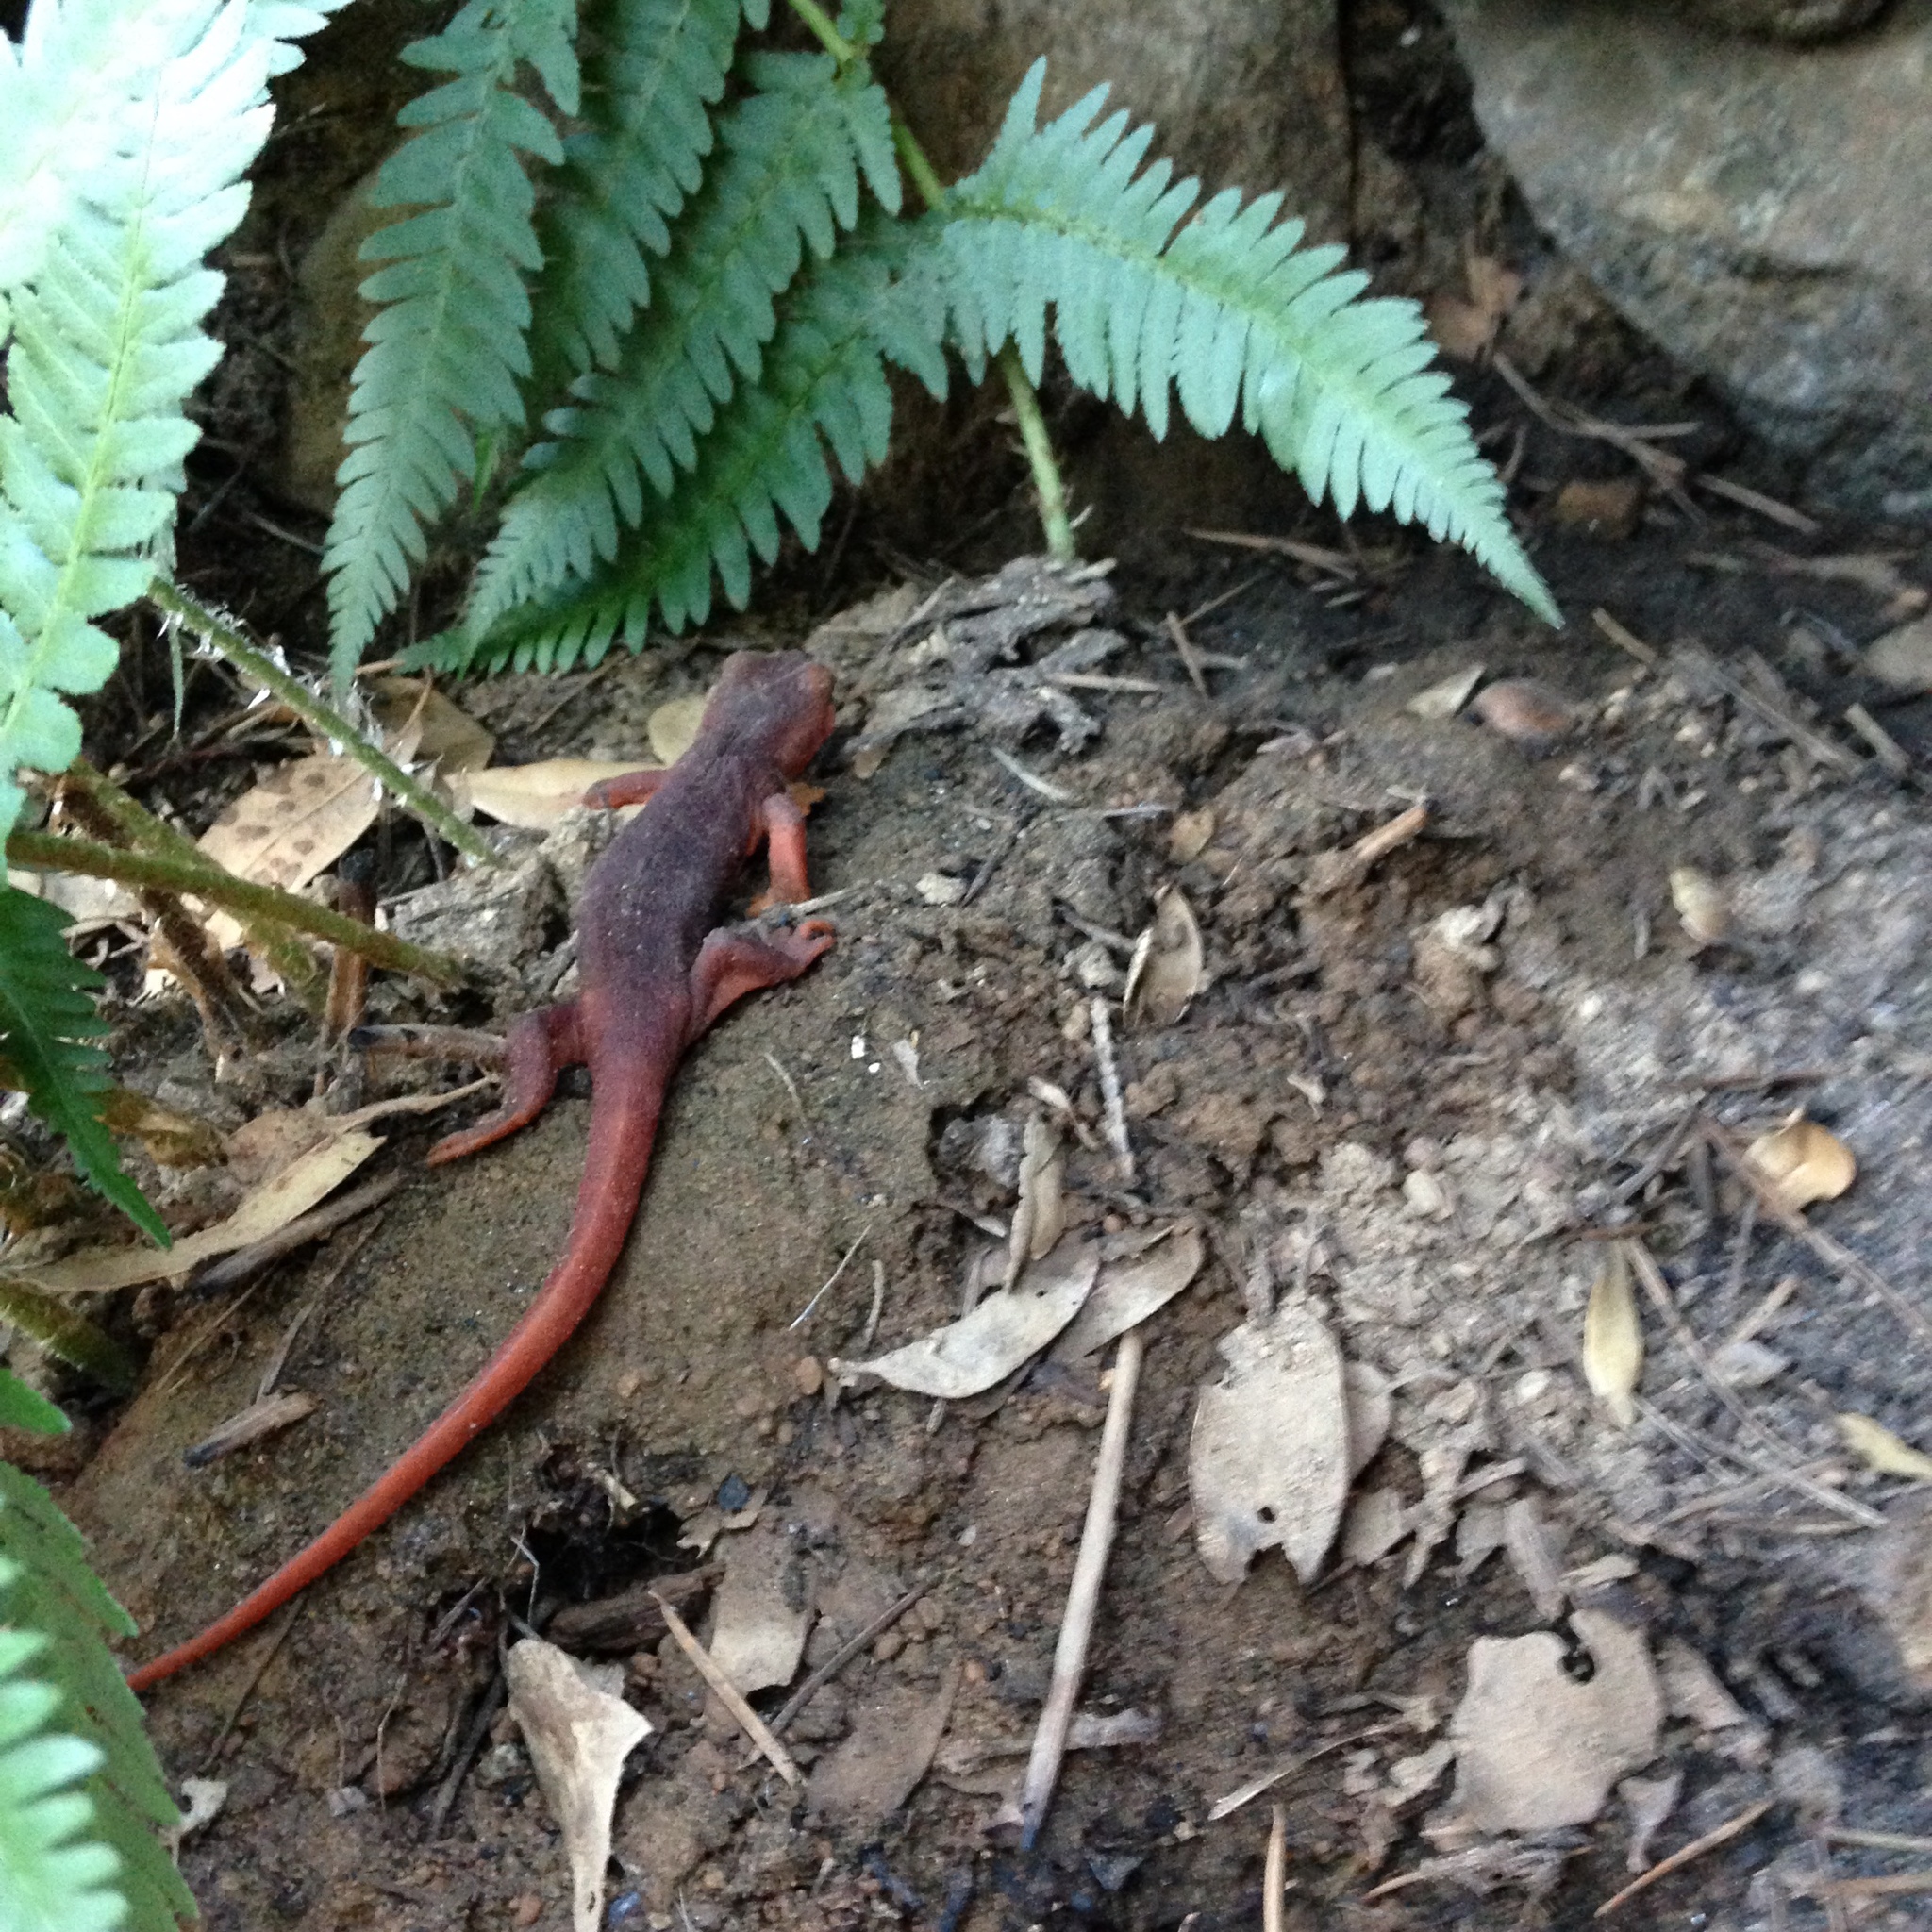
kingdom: Animalia
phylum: Chordata
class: Amphibia
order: Caudata
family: Salamandridae
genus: Taricha
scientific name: Taricha sierrae
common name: Sierra newt
